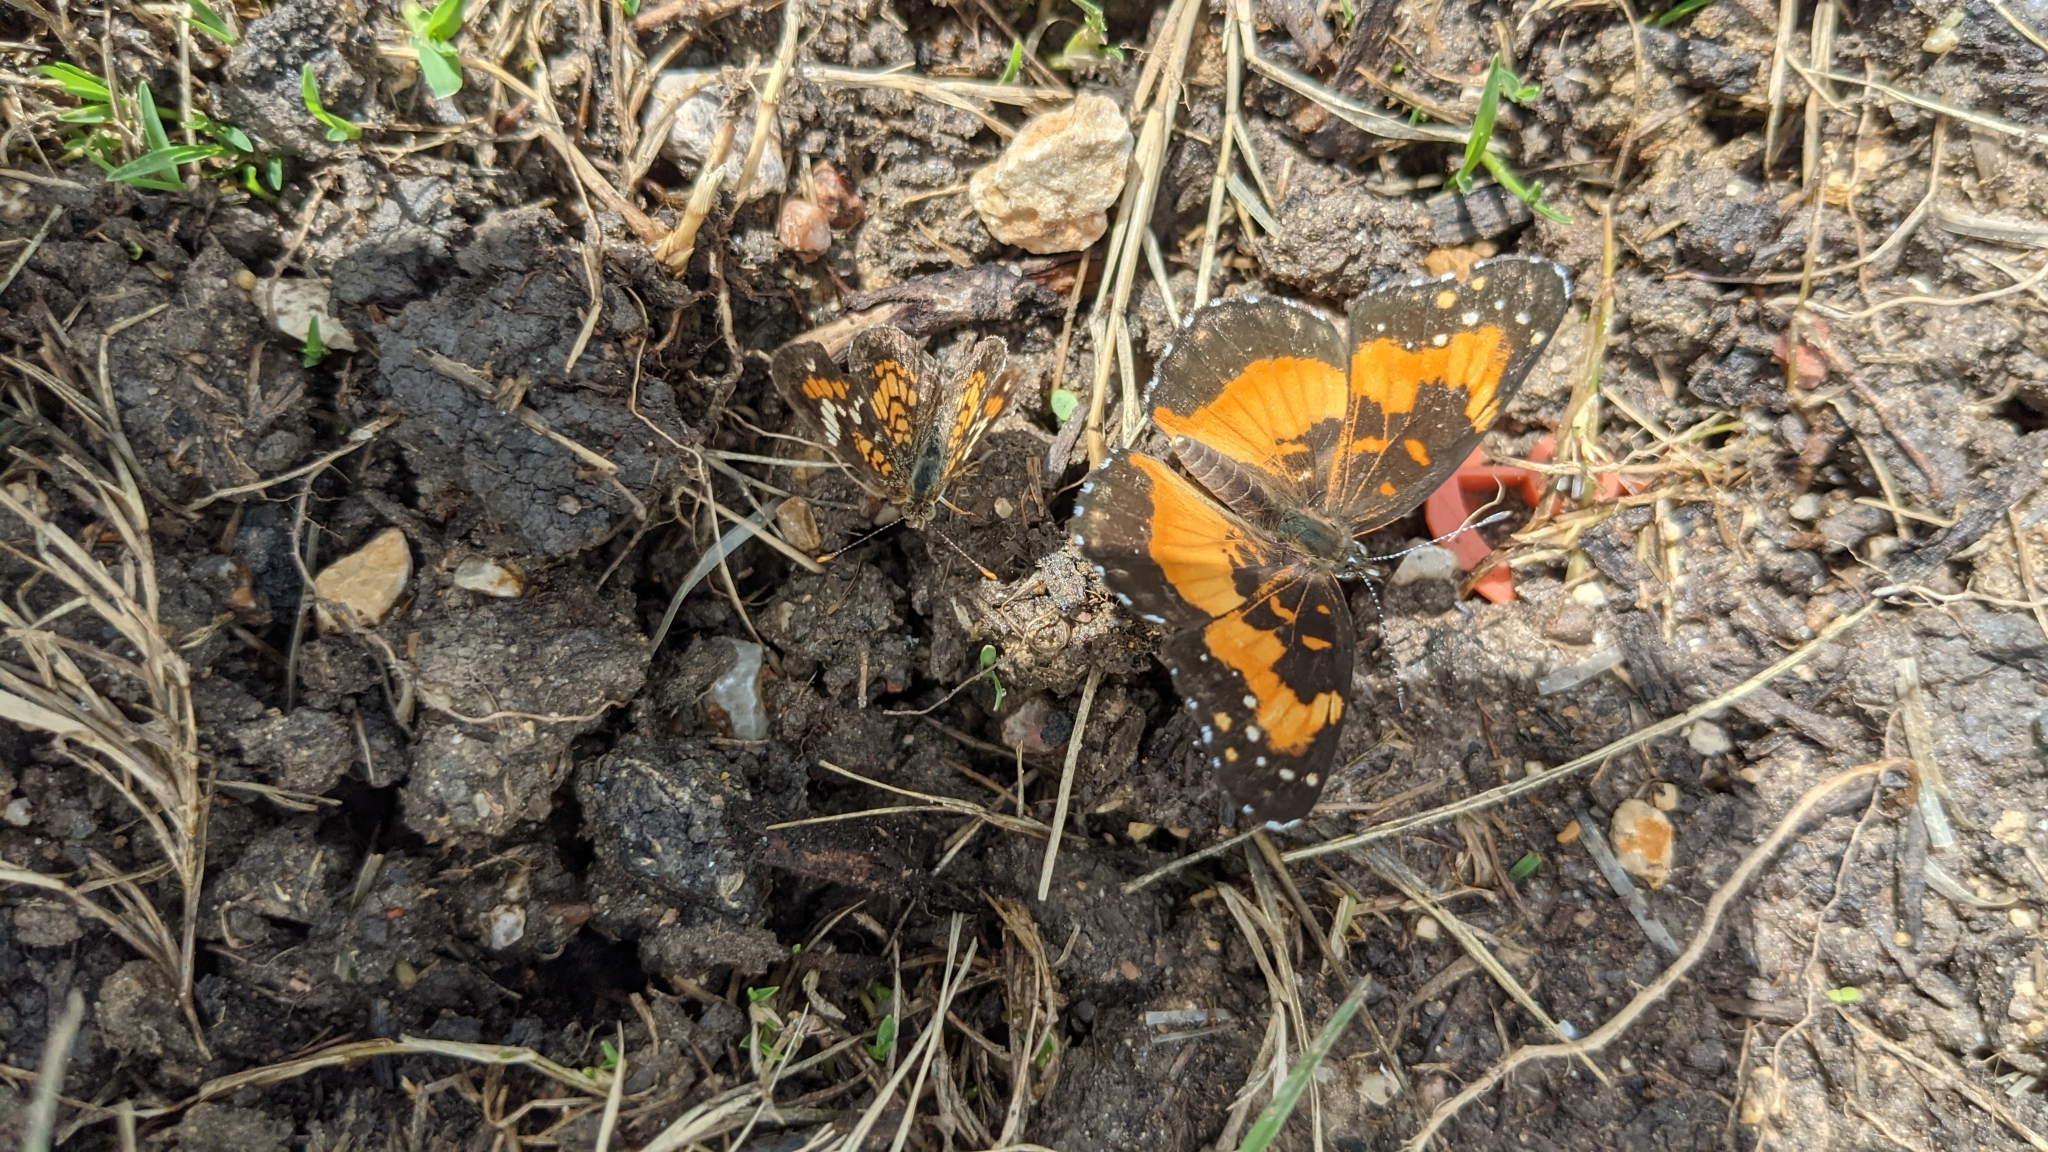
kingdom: Animalia
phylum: Arthropoda
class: Insecta
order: Lepidoptera
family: Nymphalidae
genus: Chlosyne
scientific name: Chlosyne lacinia
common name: Bordered patch
